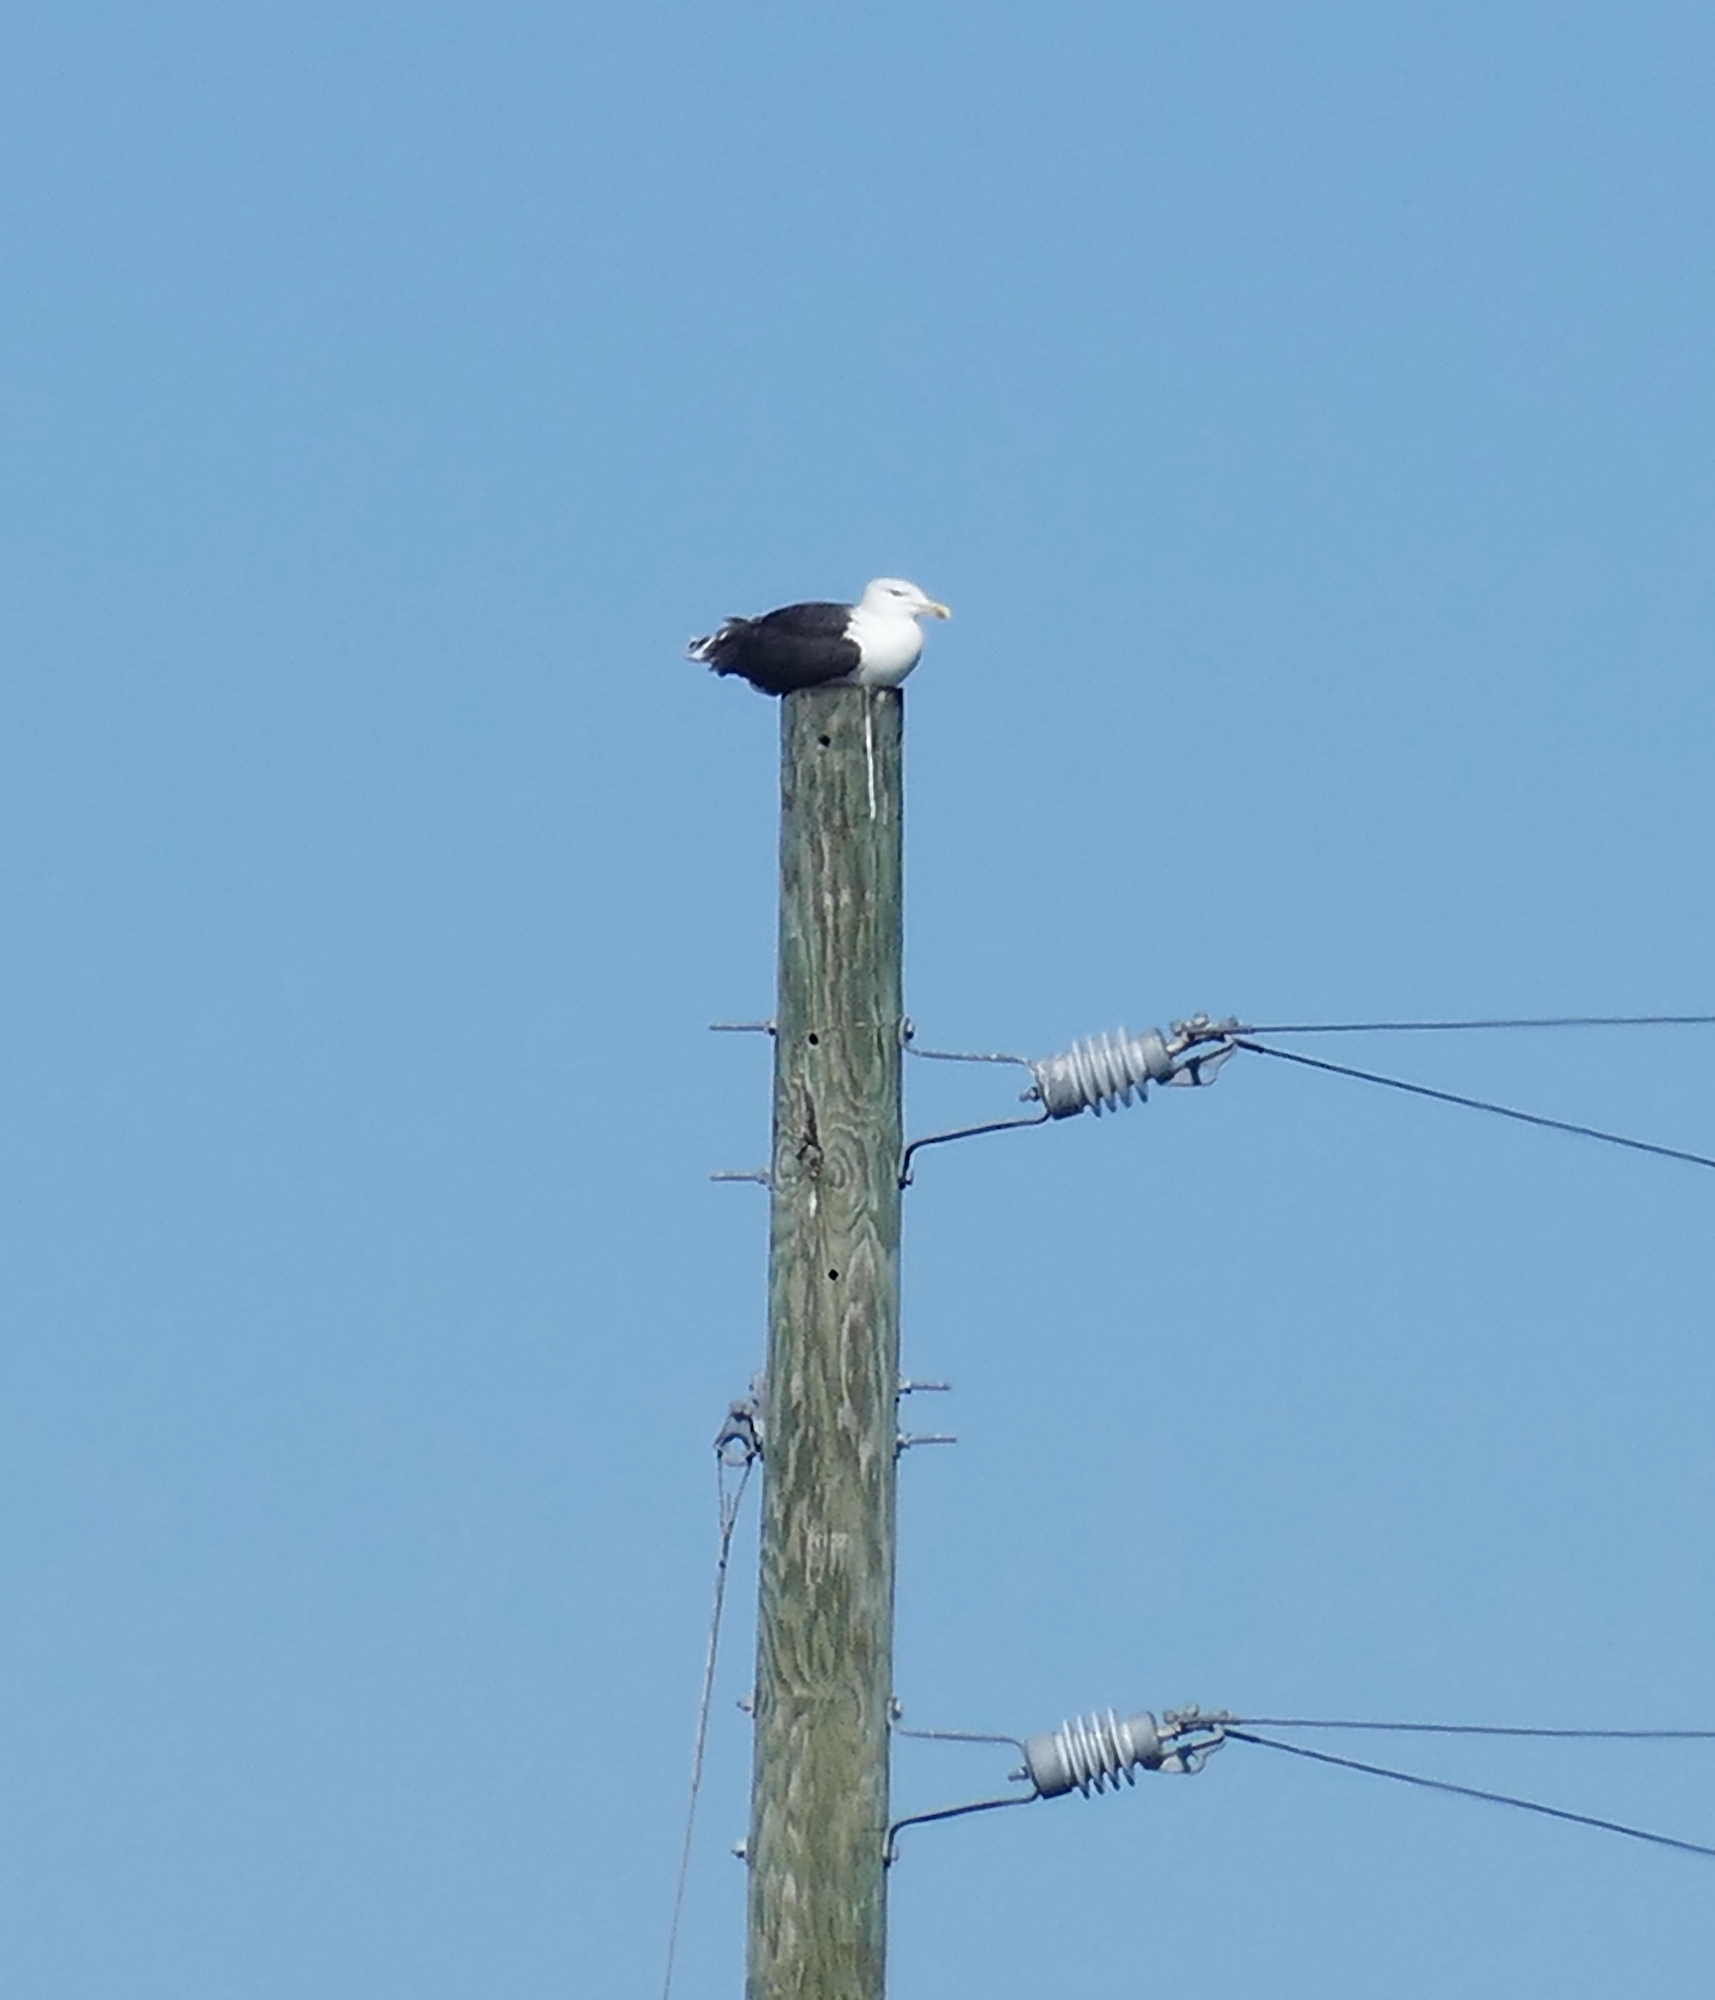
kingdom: Animalia
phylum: Chordata
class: Aves
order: Charadriiformes
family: Laridae
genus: Larus
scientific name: Larus marinus
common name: Great black-backed gull
